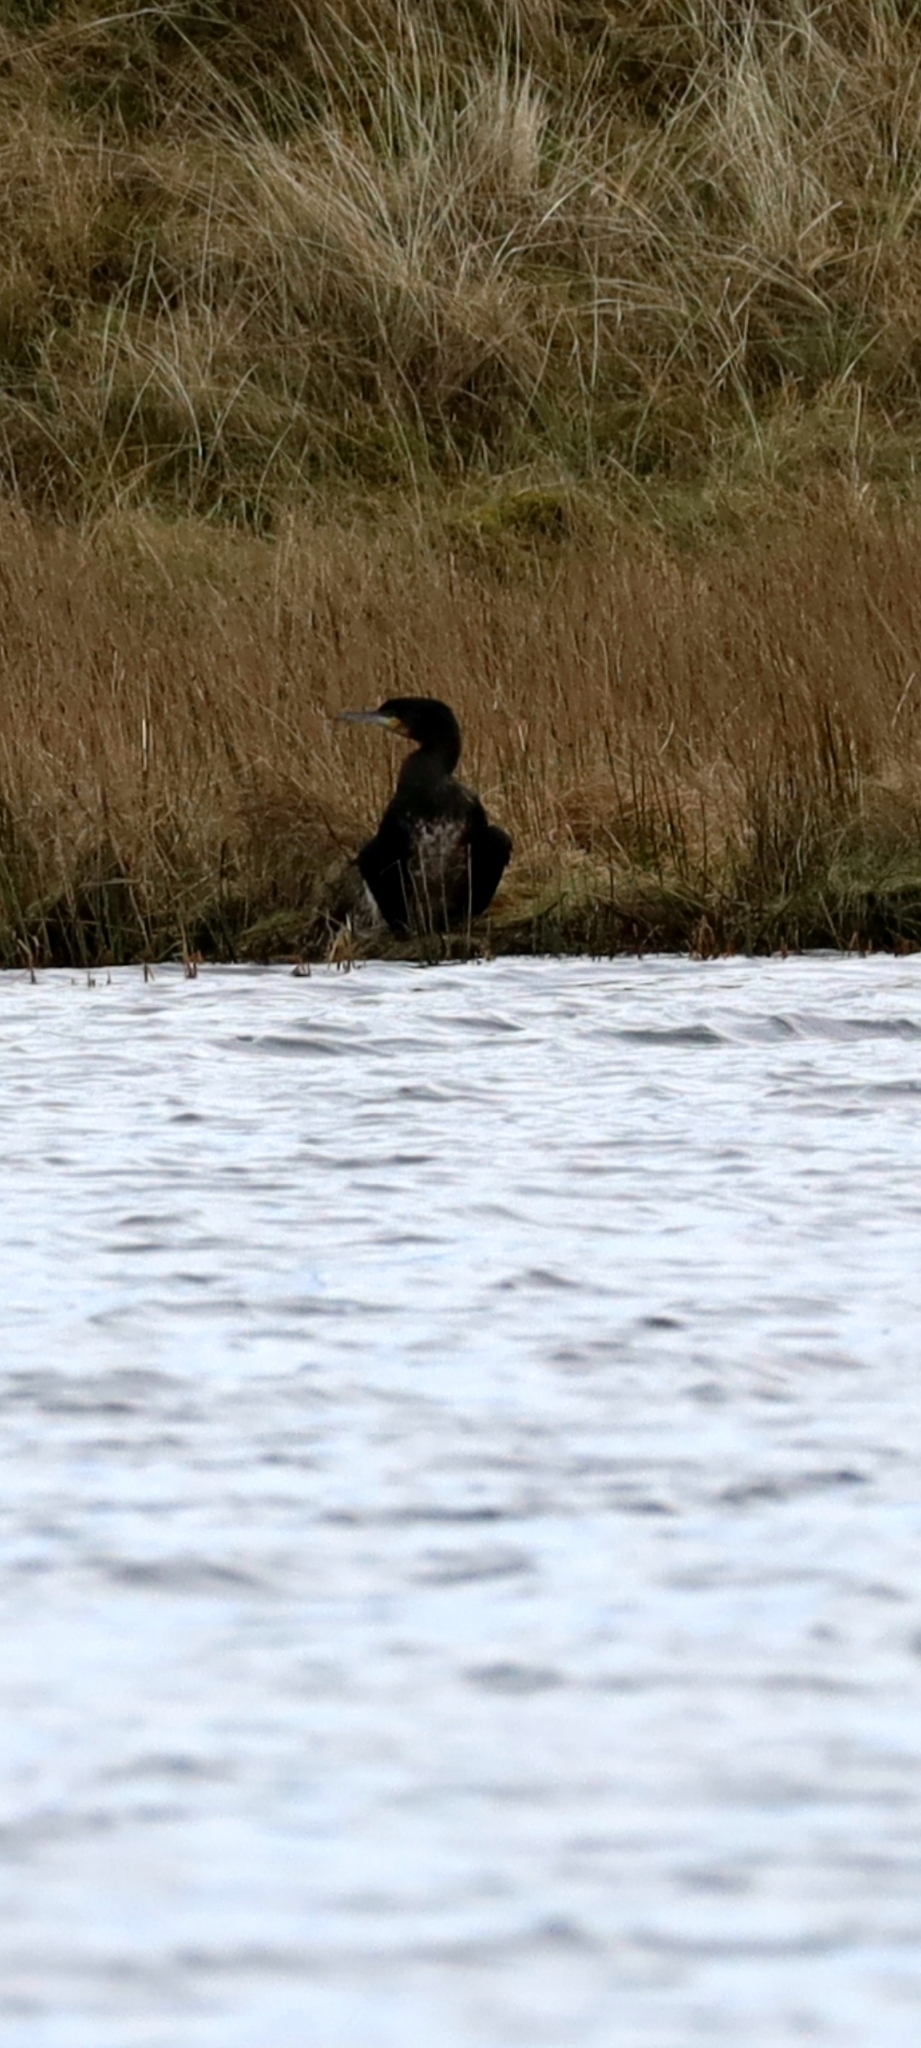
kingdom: Animalia
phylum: Chordata
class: Aves
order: Suliformes
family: Phalacrocoracidae
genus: Phalacrocorax
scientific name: Phalacrocorax carbo
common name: Great cormorant
